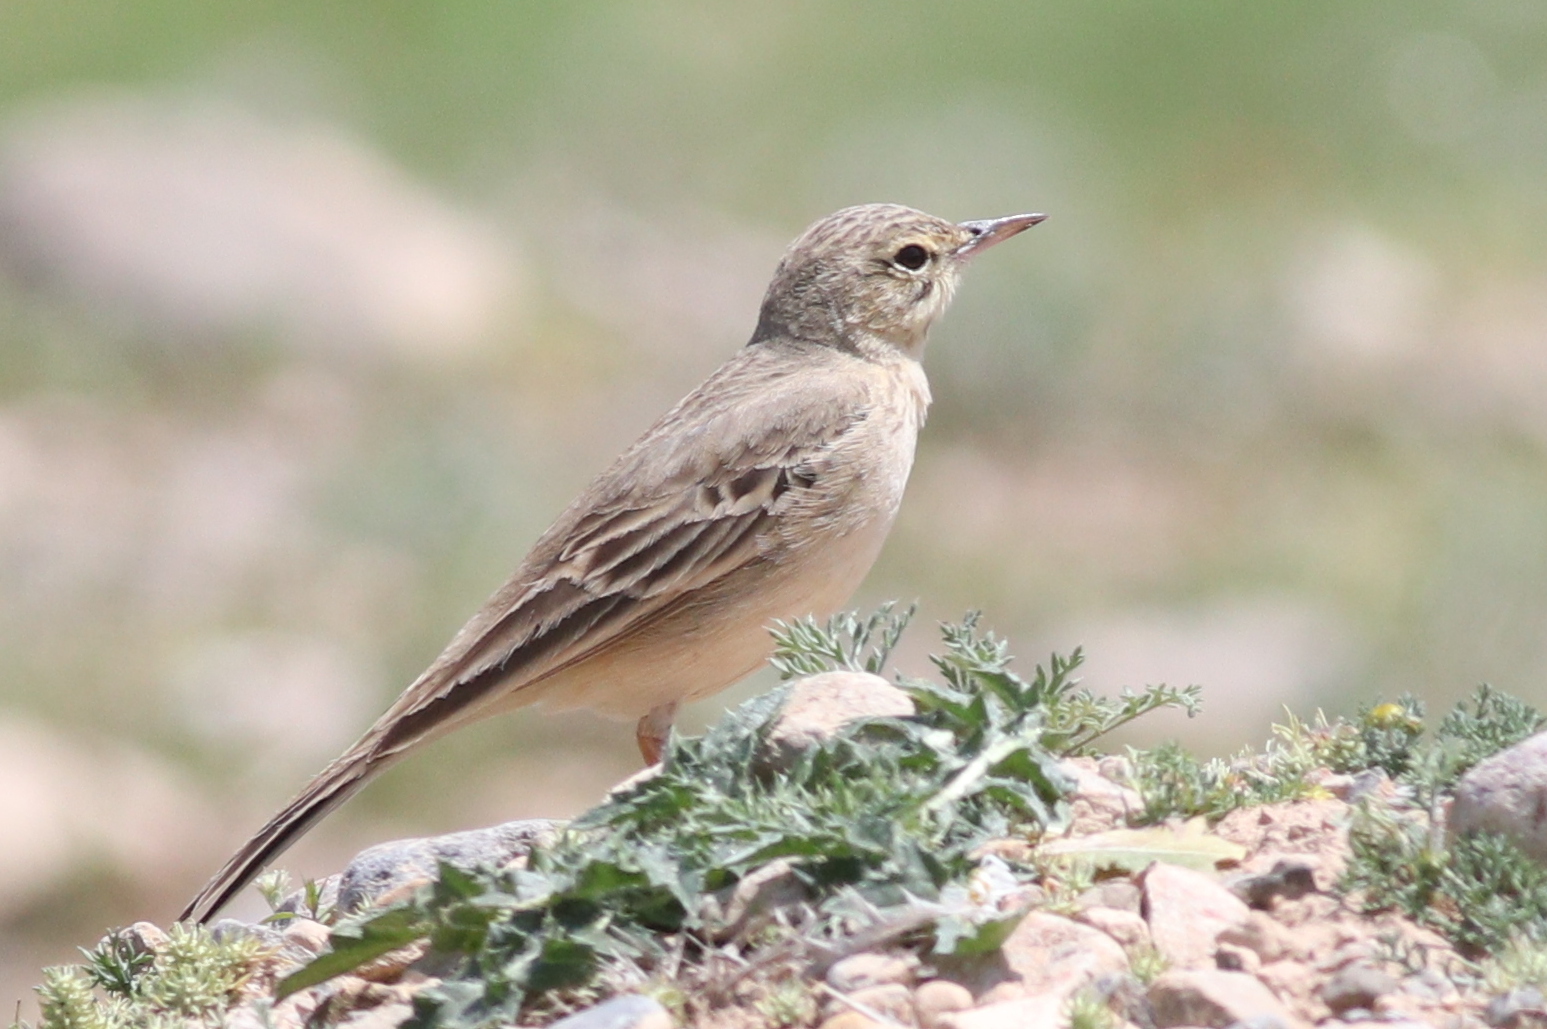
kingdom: Animalia
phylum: Chordata
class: Aves
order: Passeriformes
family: Motacillidae
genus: Anthus
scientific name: Anthus campestris
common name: Tawny pipit
